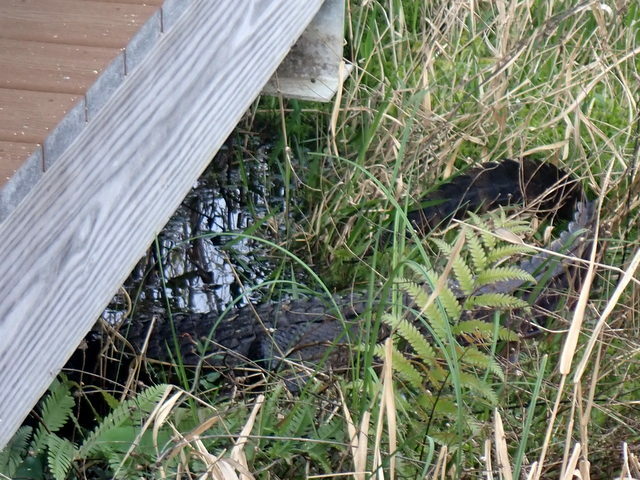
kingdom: Animalia
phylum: Chordata
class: Crocodylia
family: Alligatoridae
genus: Alligator
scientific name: Alligator mississippiensis
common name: American alligator
